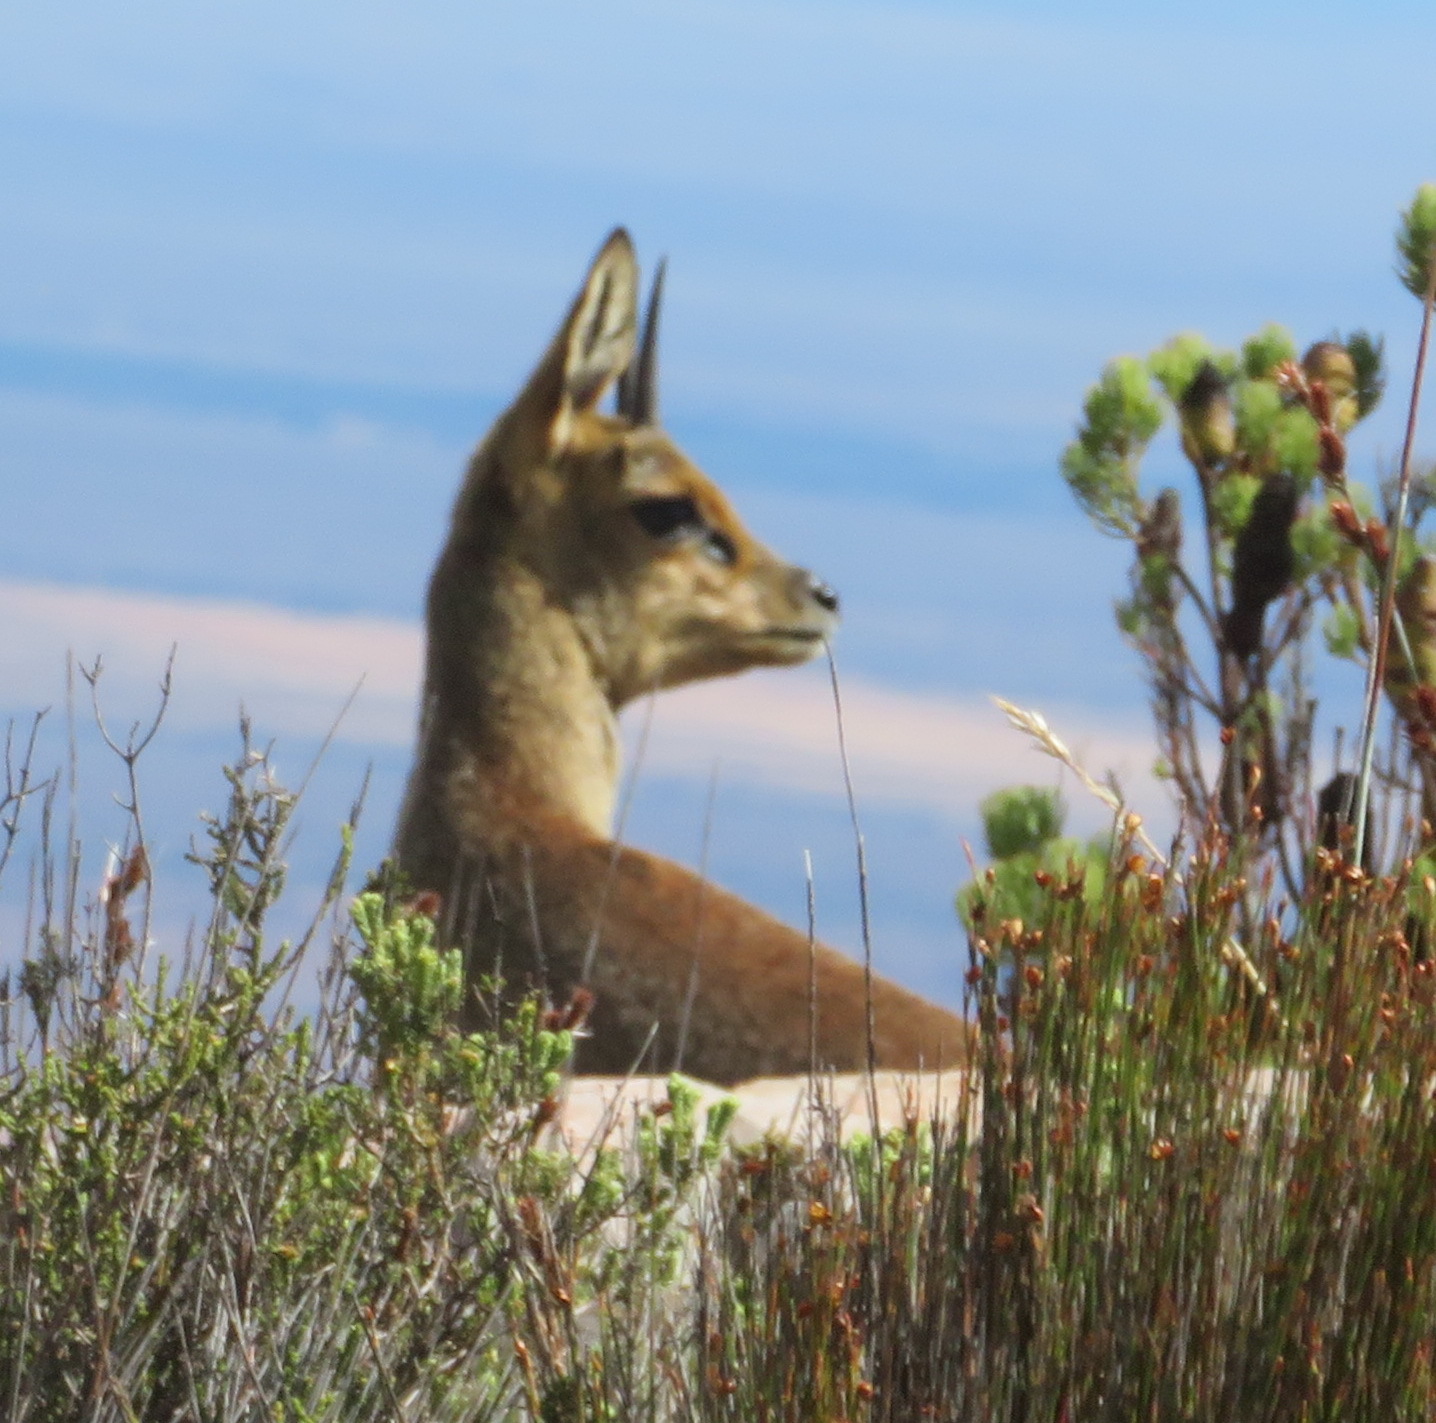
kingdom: Animalia
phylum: Chordata
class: Mammalia
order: Artiodactyla
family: Bovidae
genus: Oreotragus
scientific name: Oreotragus oreotragus
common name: Klipspringer
